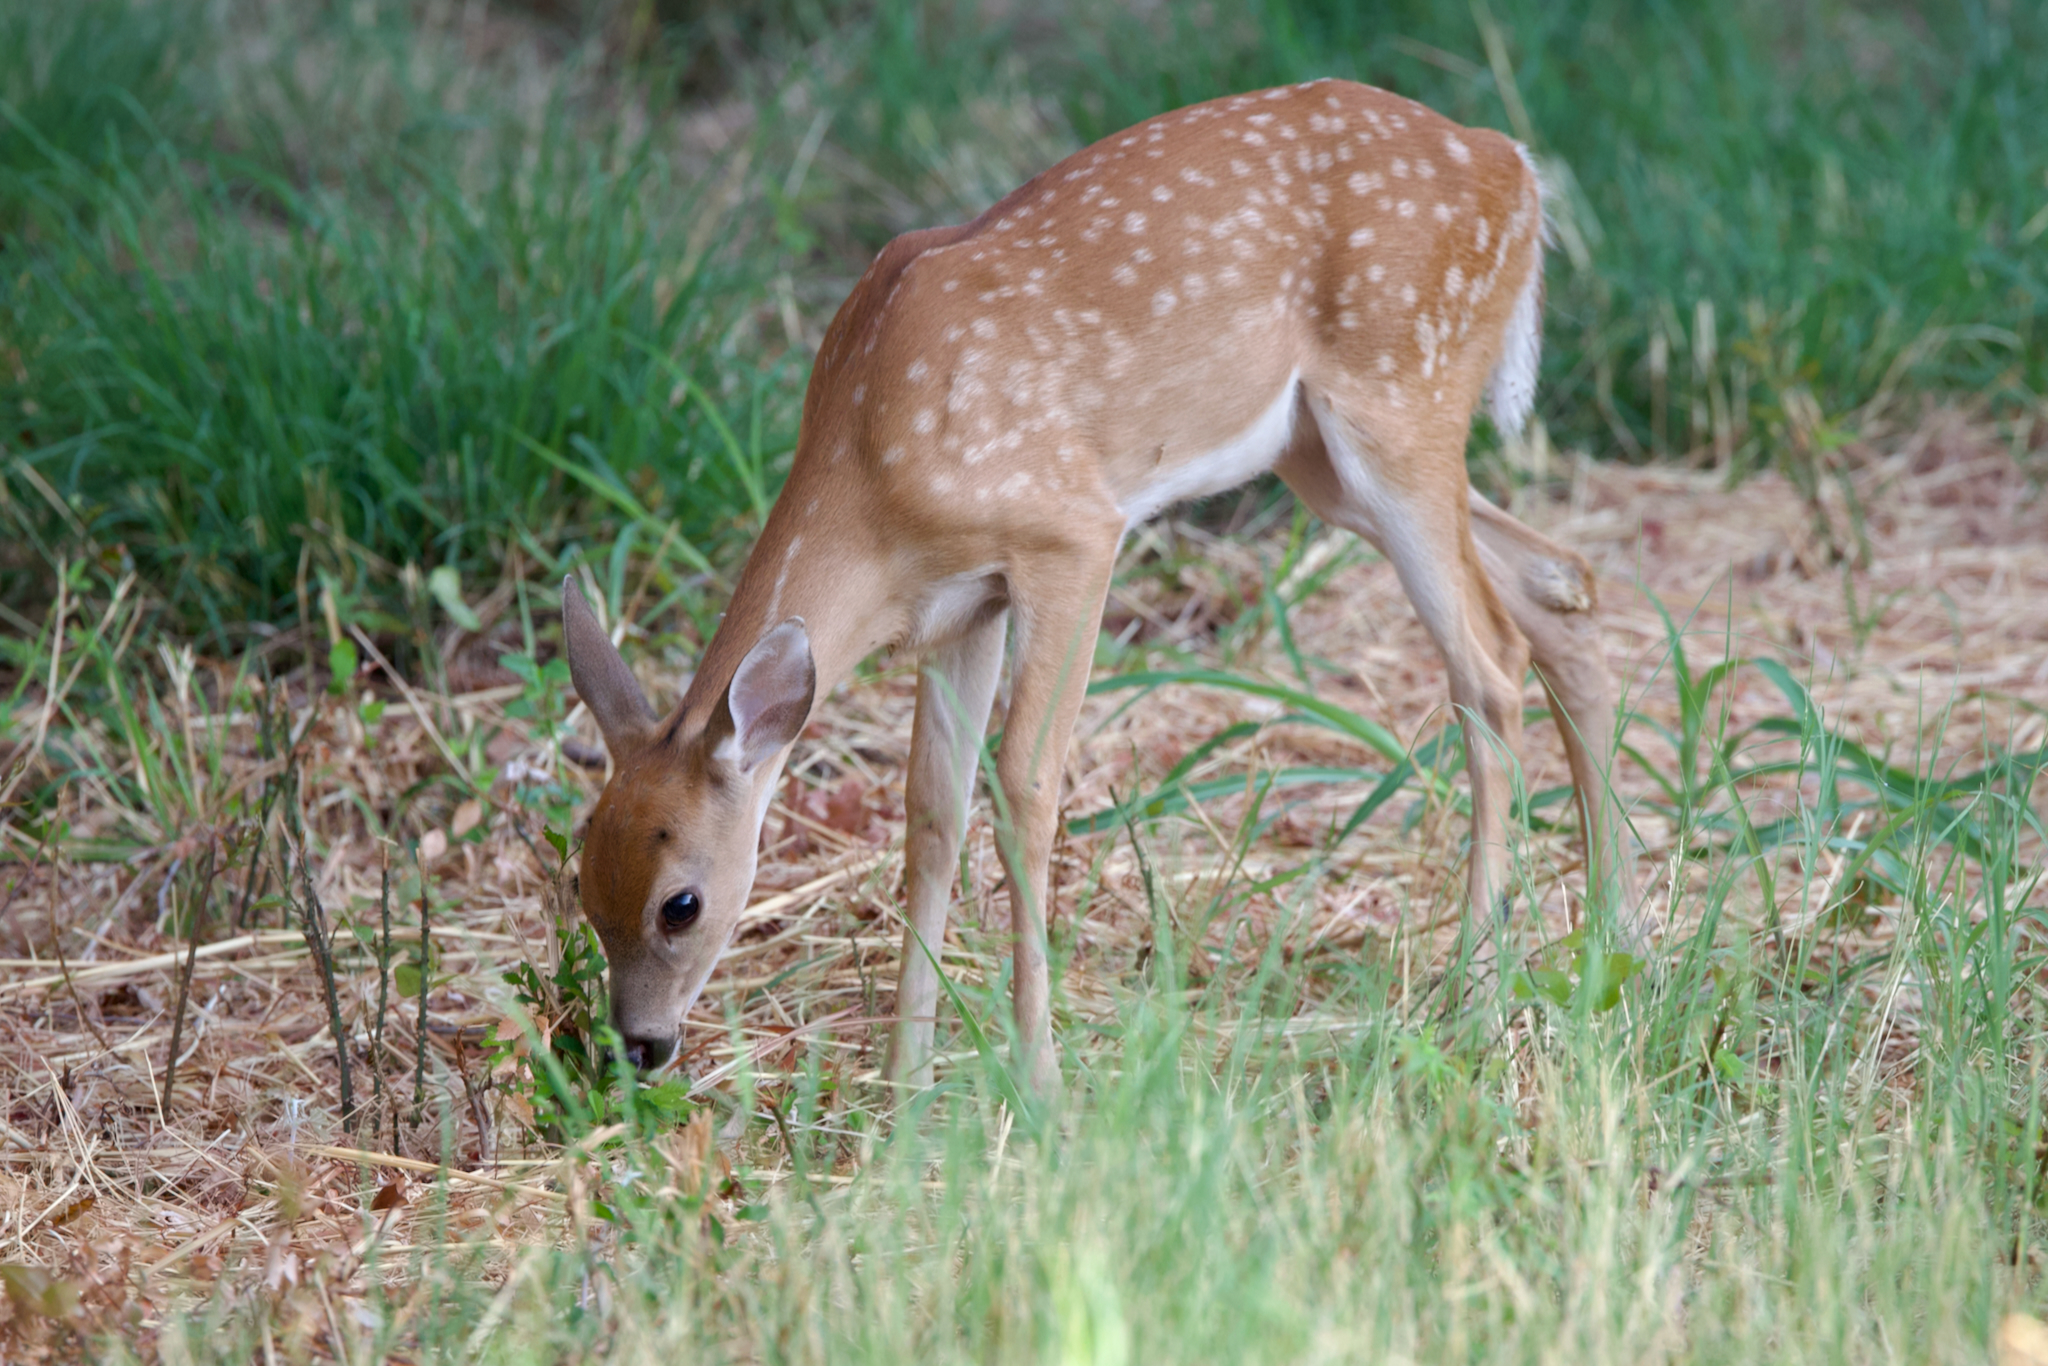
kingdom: Animalia
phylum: Chordata
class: Mammalia
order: Artiodactyla
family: Cervidae
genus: Odocoileus
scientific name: Odocoileus virginianus
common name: White-tailed deer
